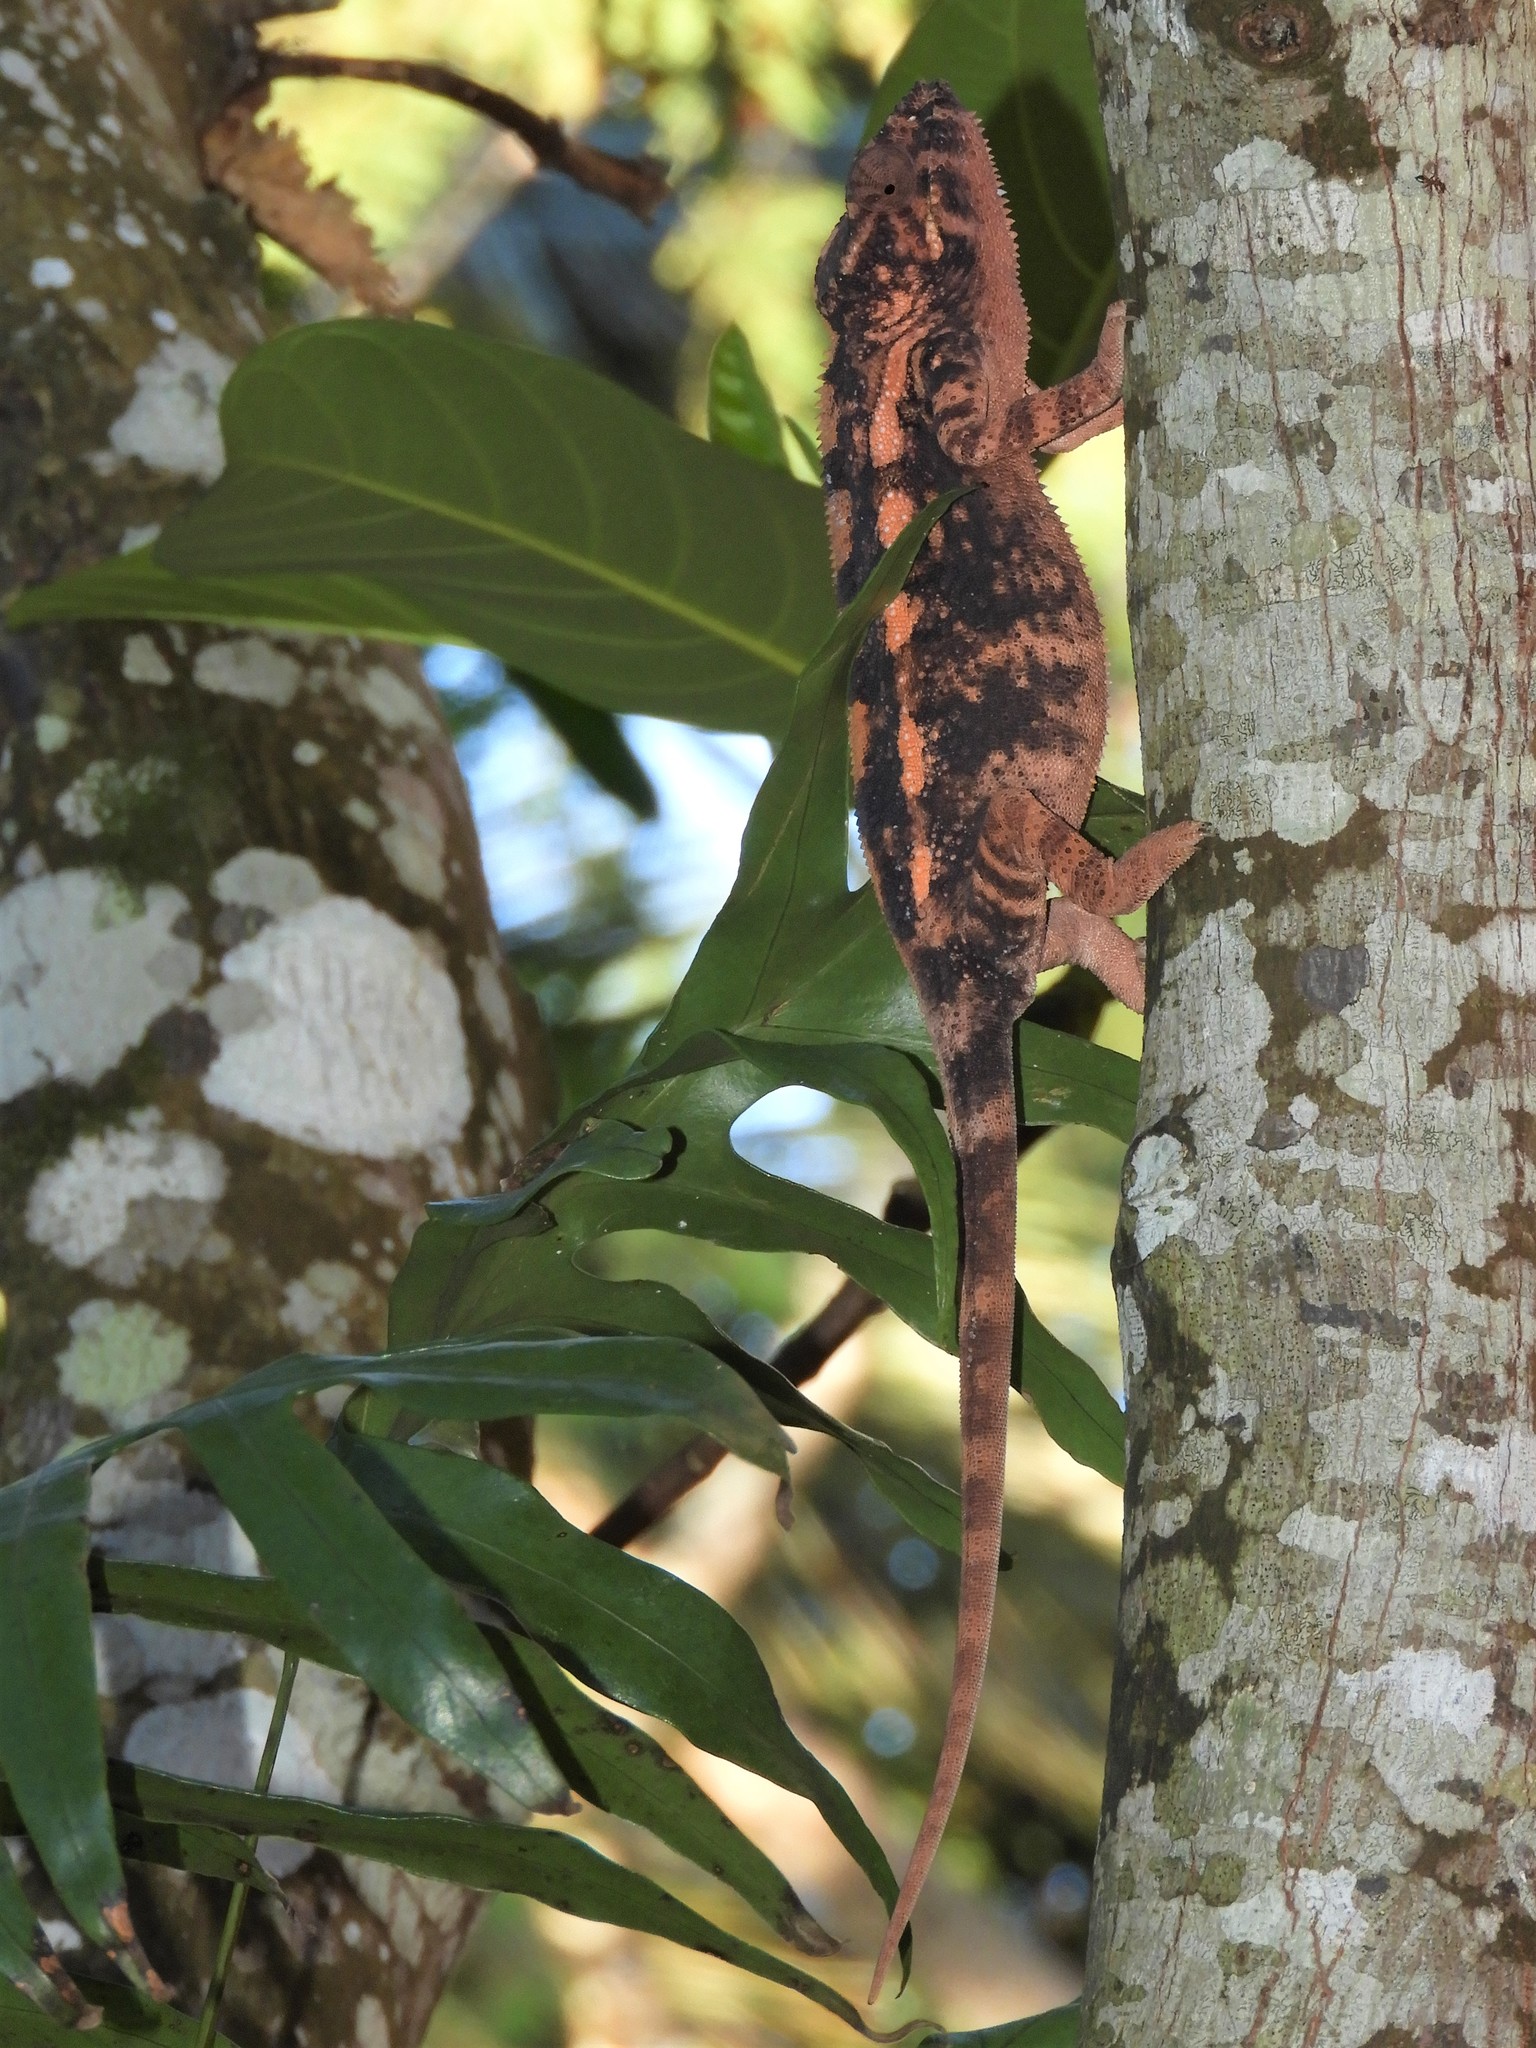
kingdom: Animalia
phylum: Chordata
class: Squamata
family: Chamaeleonidae
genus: Furcifer
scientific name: Furcifer pardalis
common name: Panther chameleon
